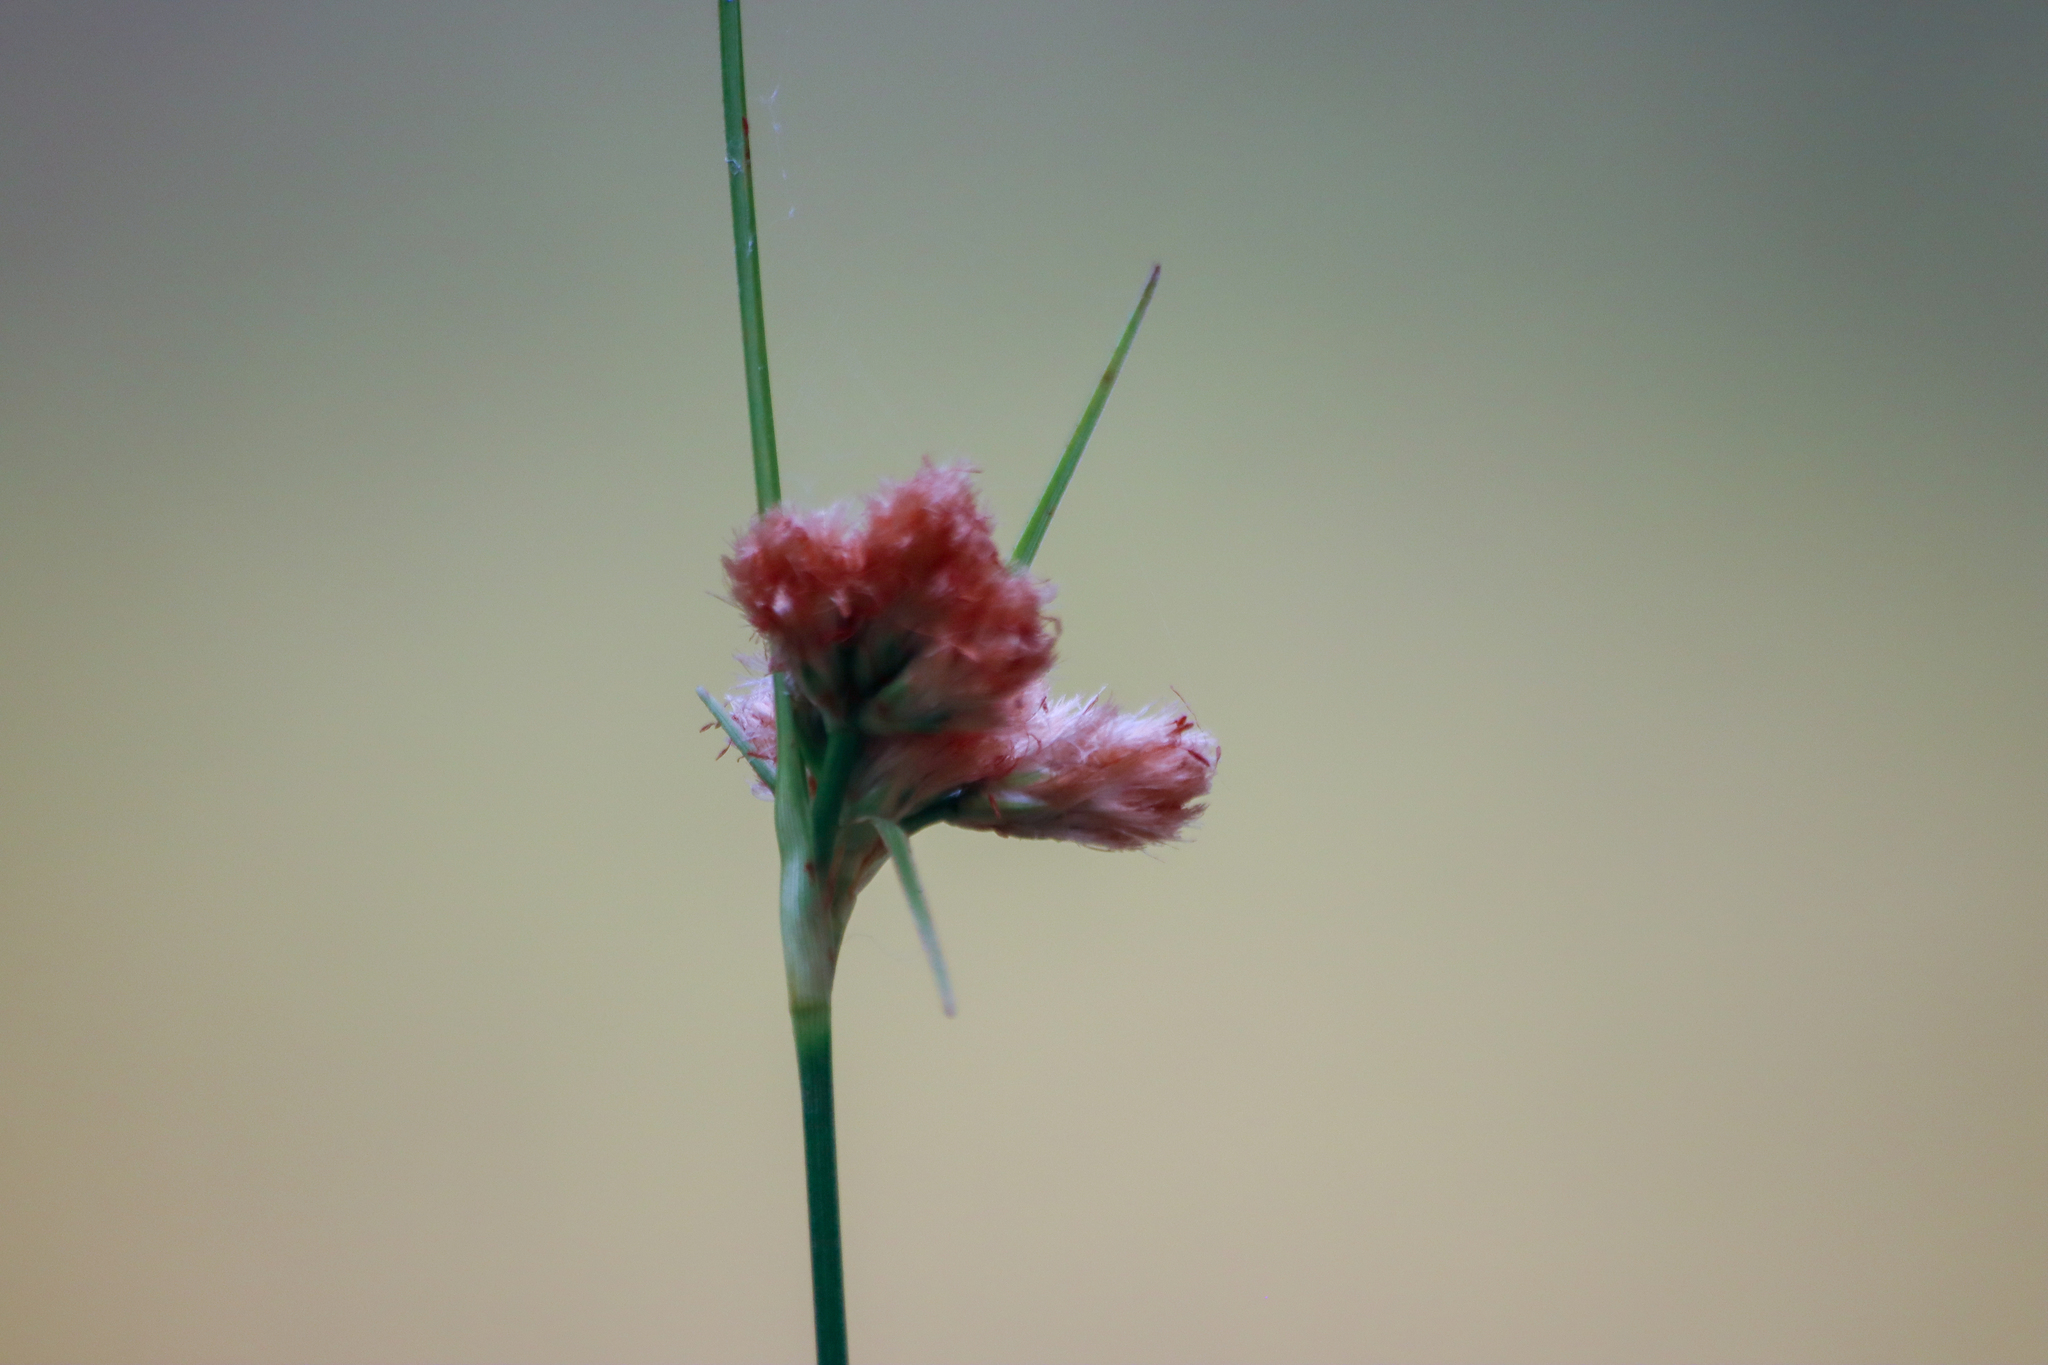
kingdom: Plantae
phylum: Tracheophyta
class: Liliopsida
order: Poales
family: Cyperaceae
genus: Eriophorum
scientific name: Eriophorum virginicum
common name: Tawny cottongrass
